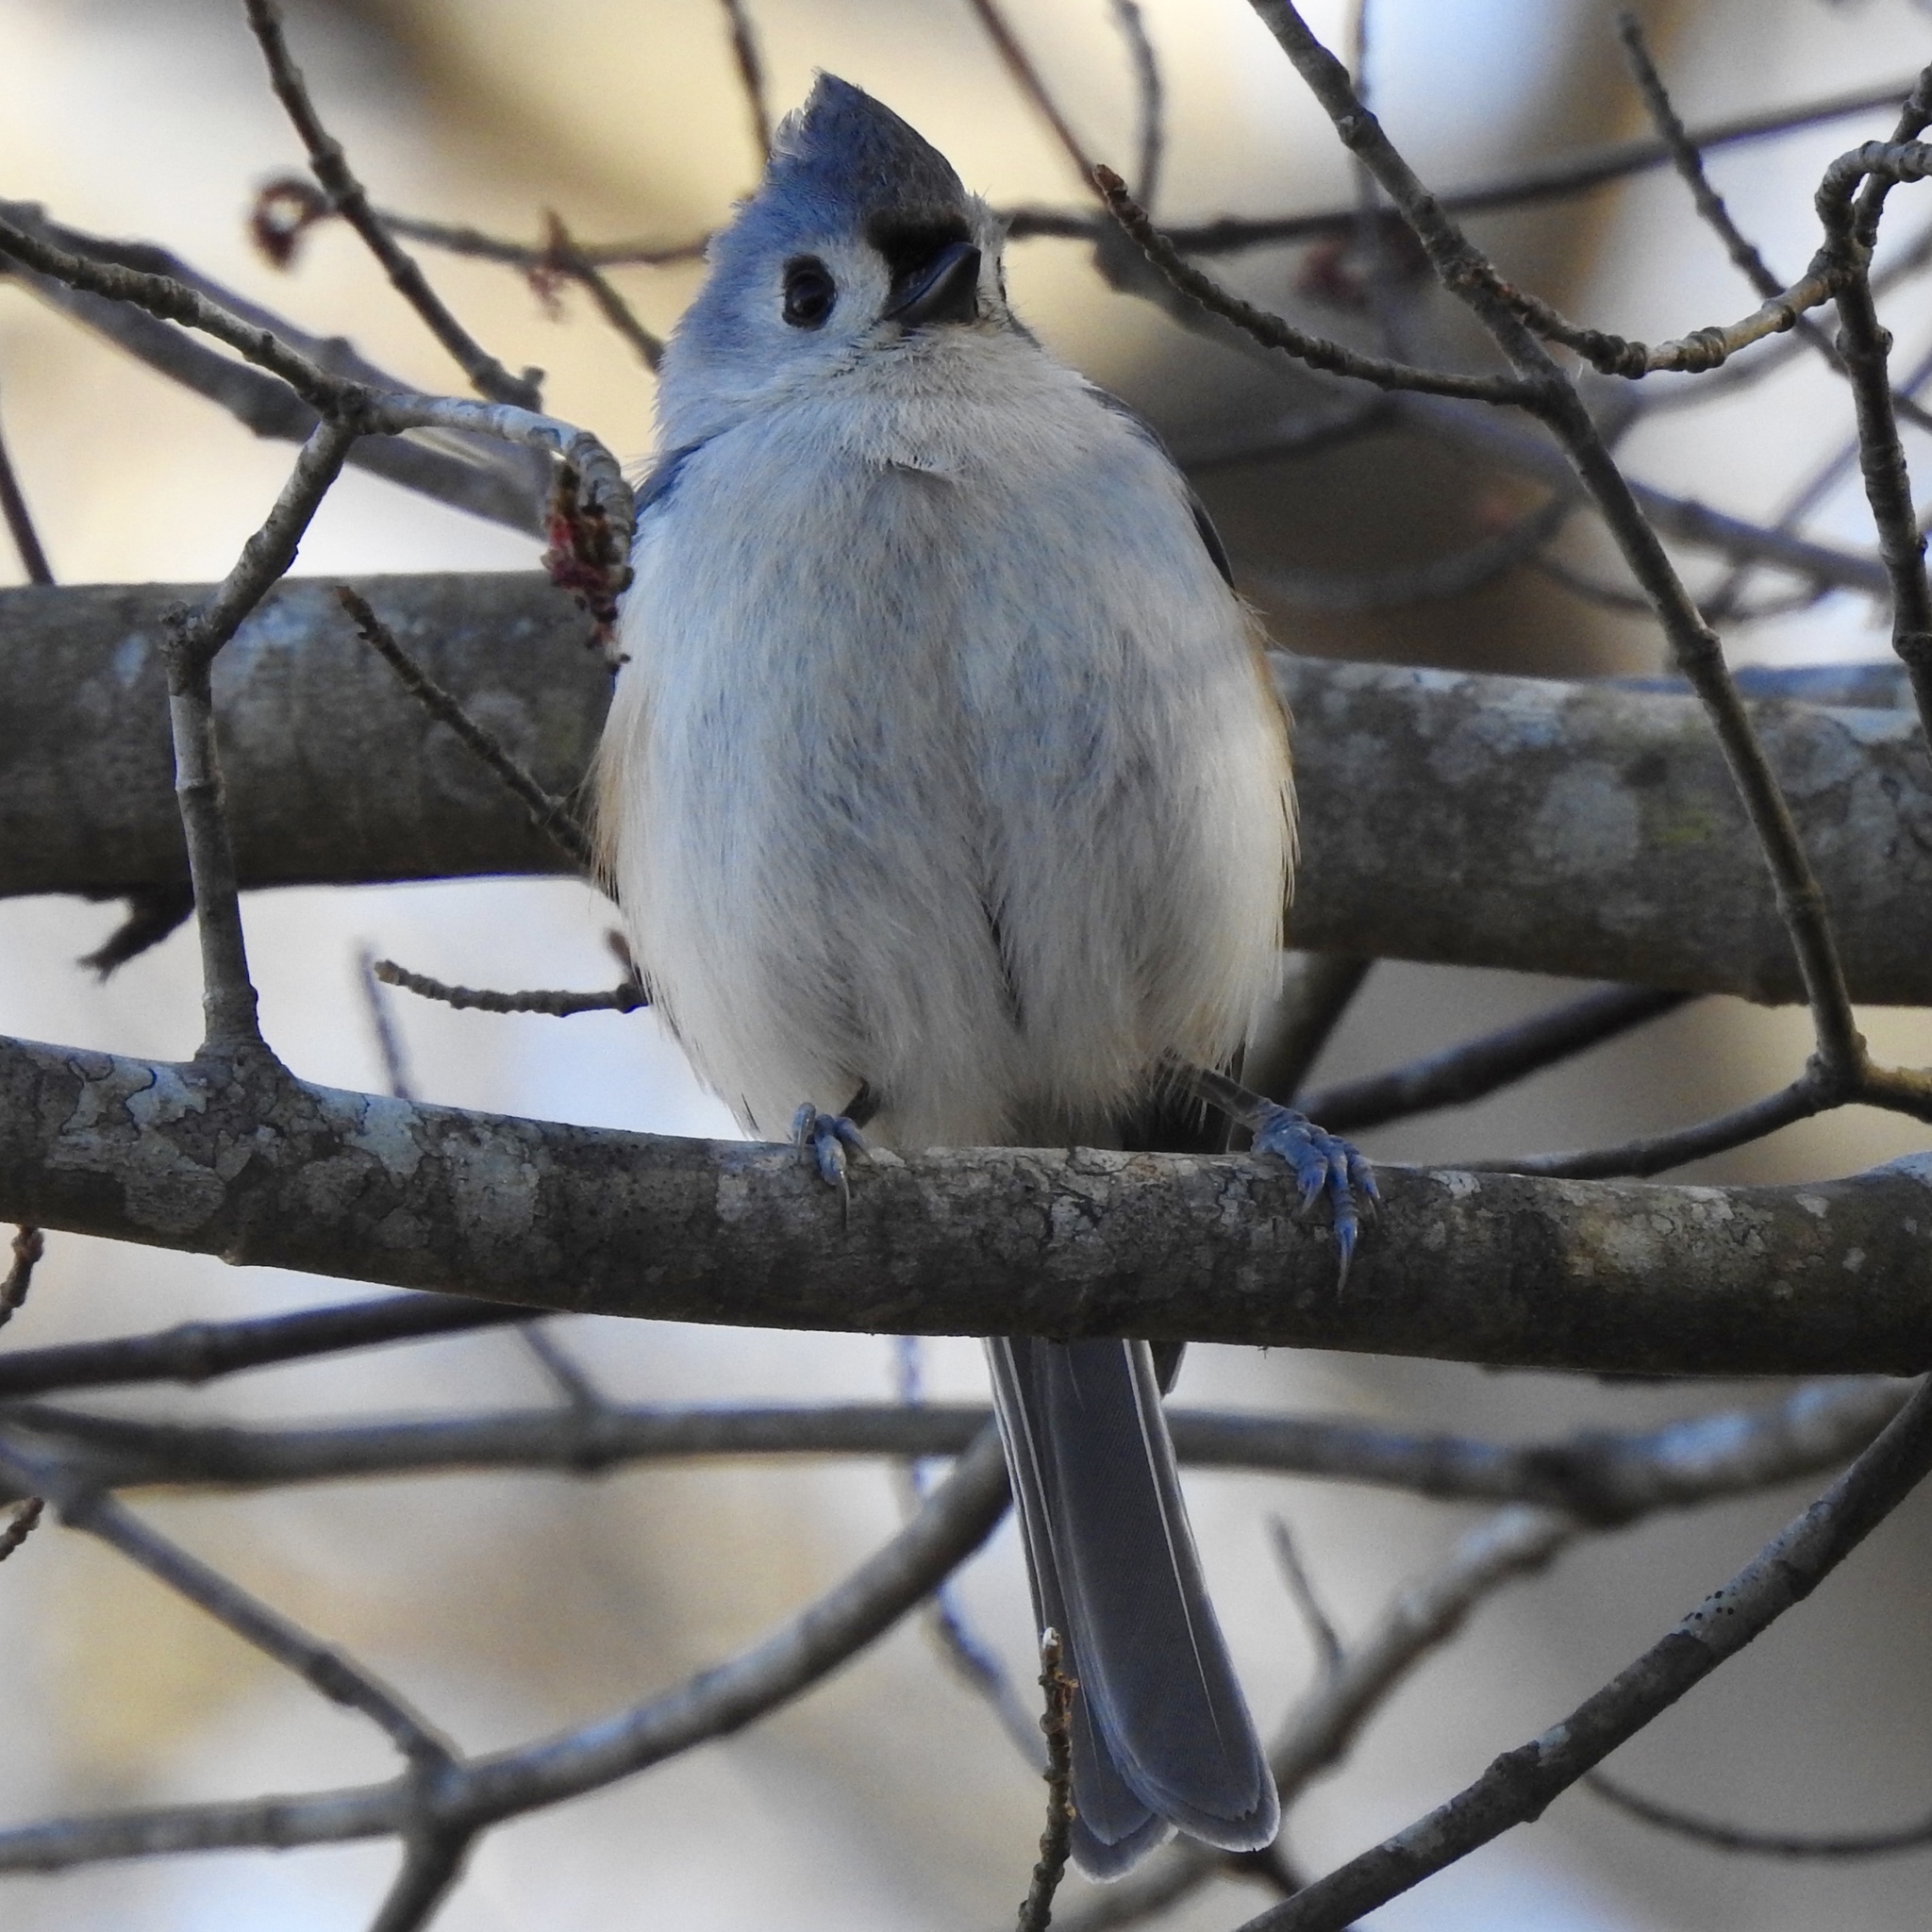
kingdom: Animalia
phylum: Chordata
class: Aves
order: Passeriformes
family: Paridae
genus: Baeolophus
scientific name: Baeolophus bicolor
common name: Tufted titmouse
